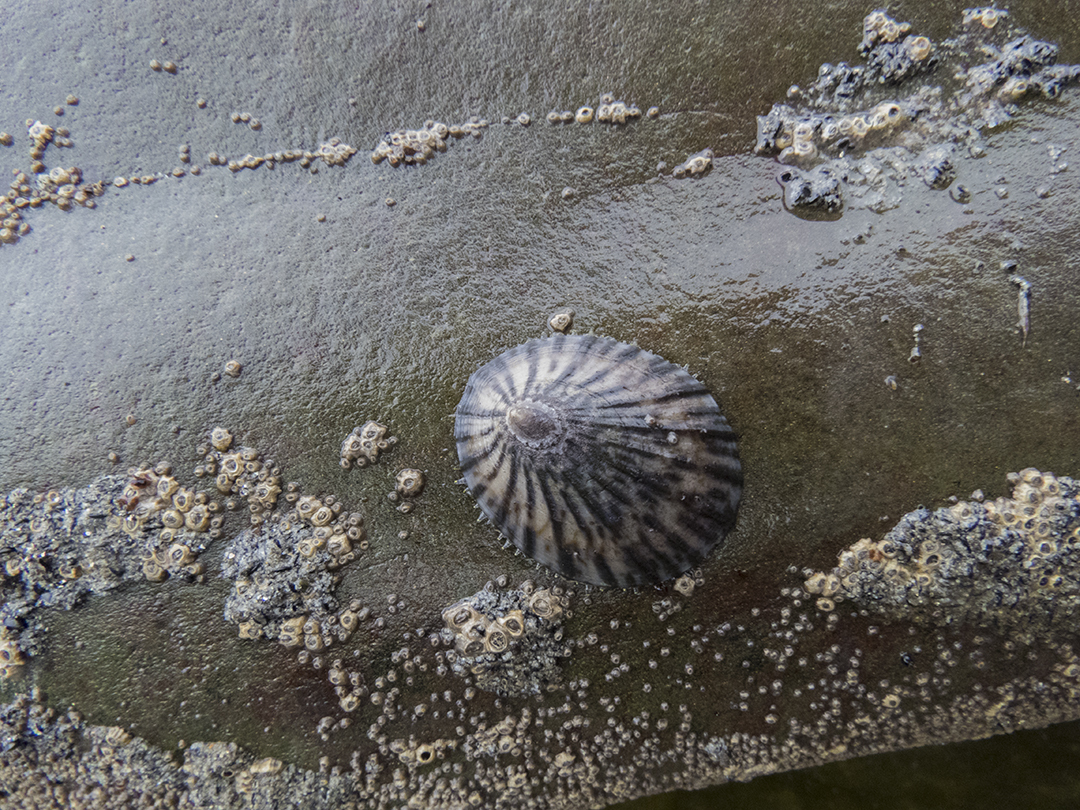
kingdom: Animalia
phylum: Mollusca
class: Gastropoda
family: Nacellidae
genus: Cellana
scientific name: Cellana radians
